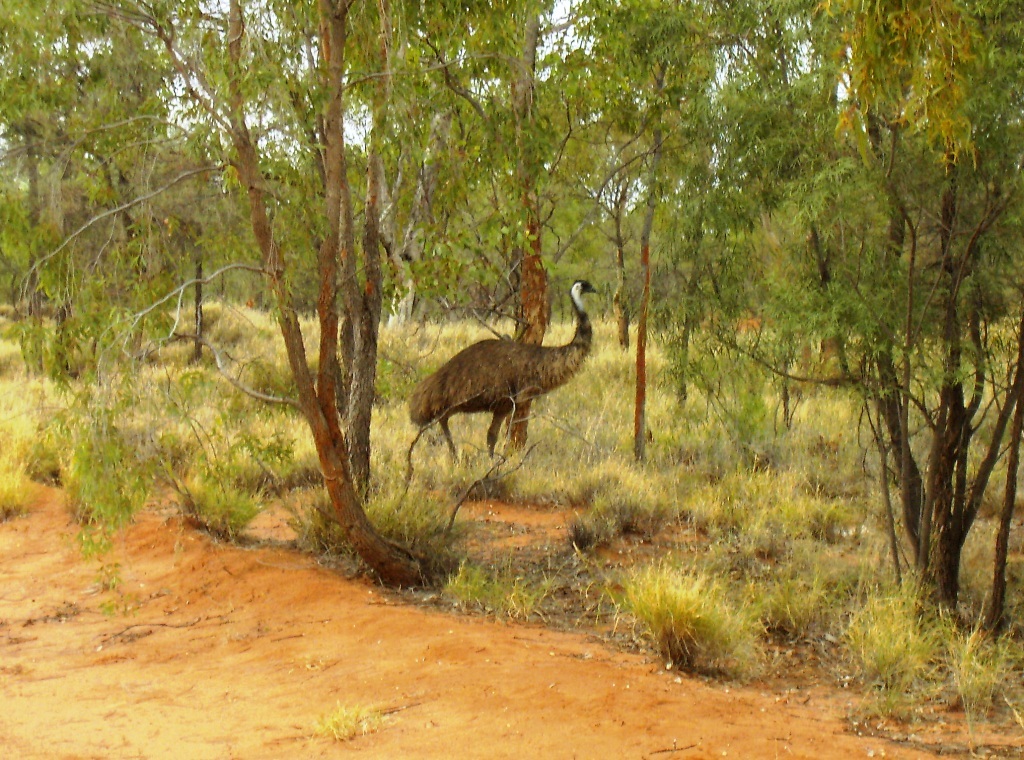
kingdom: Animalia
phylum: Chordata
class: Aves
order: Casuariiformes
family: Dromaiidae
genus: Dromaius
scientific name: Dromaius novaehollandiae
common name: Emu
